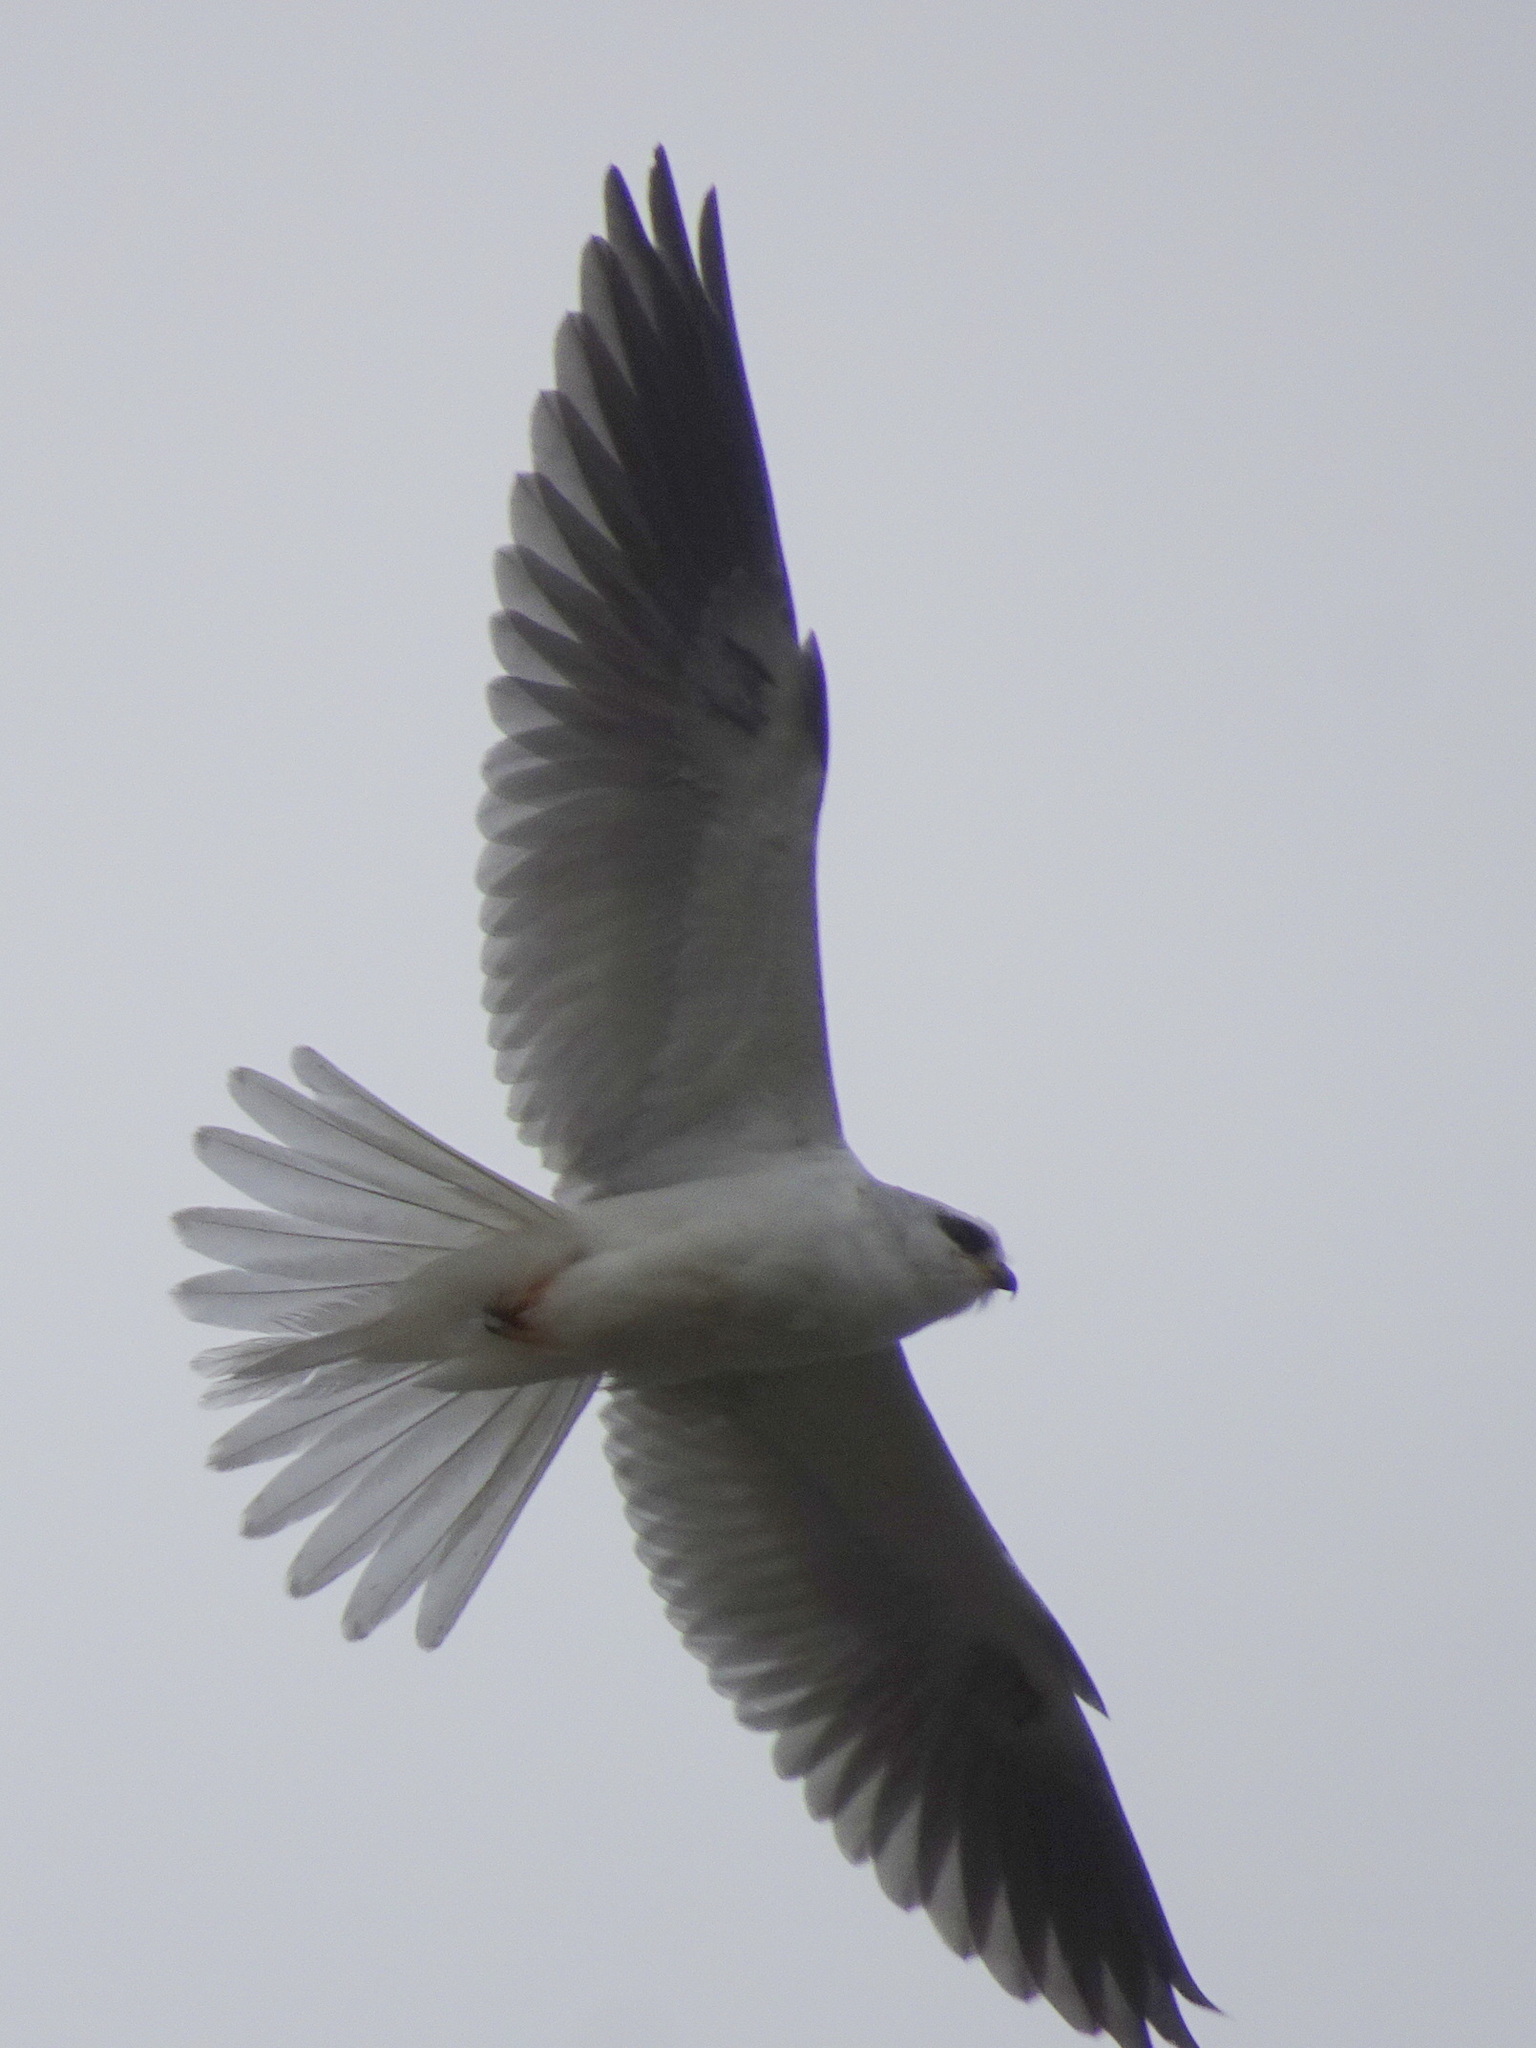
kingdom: Animalia
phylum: Chordata
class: Aves
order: Accipitriformes
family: Accipitridae
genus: Elanus
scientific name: Elanus leucurus
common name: White-tailed kite
